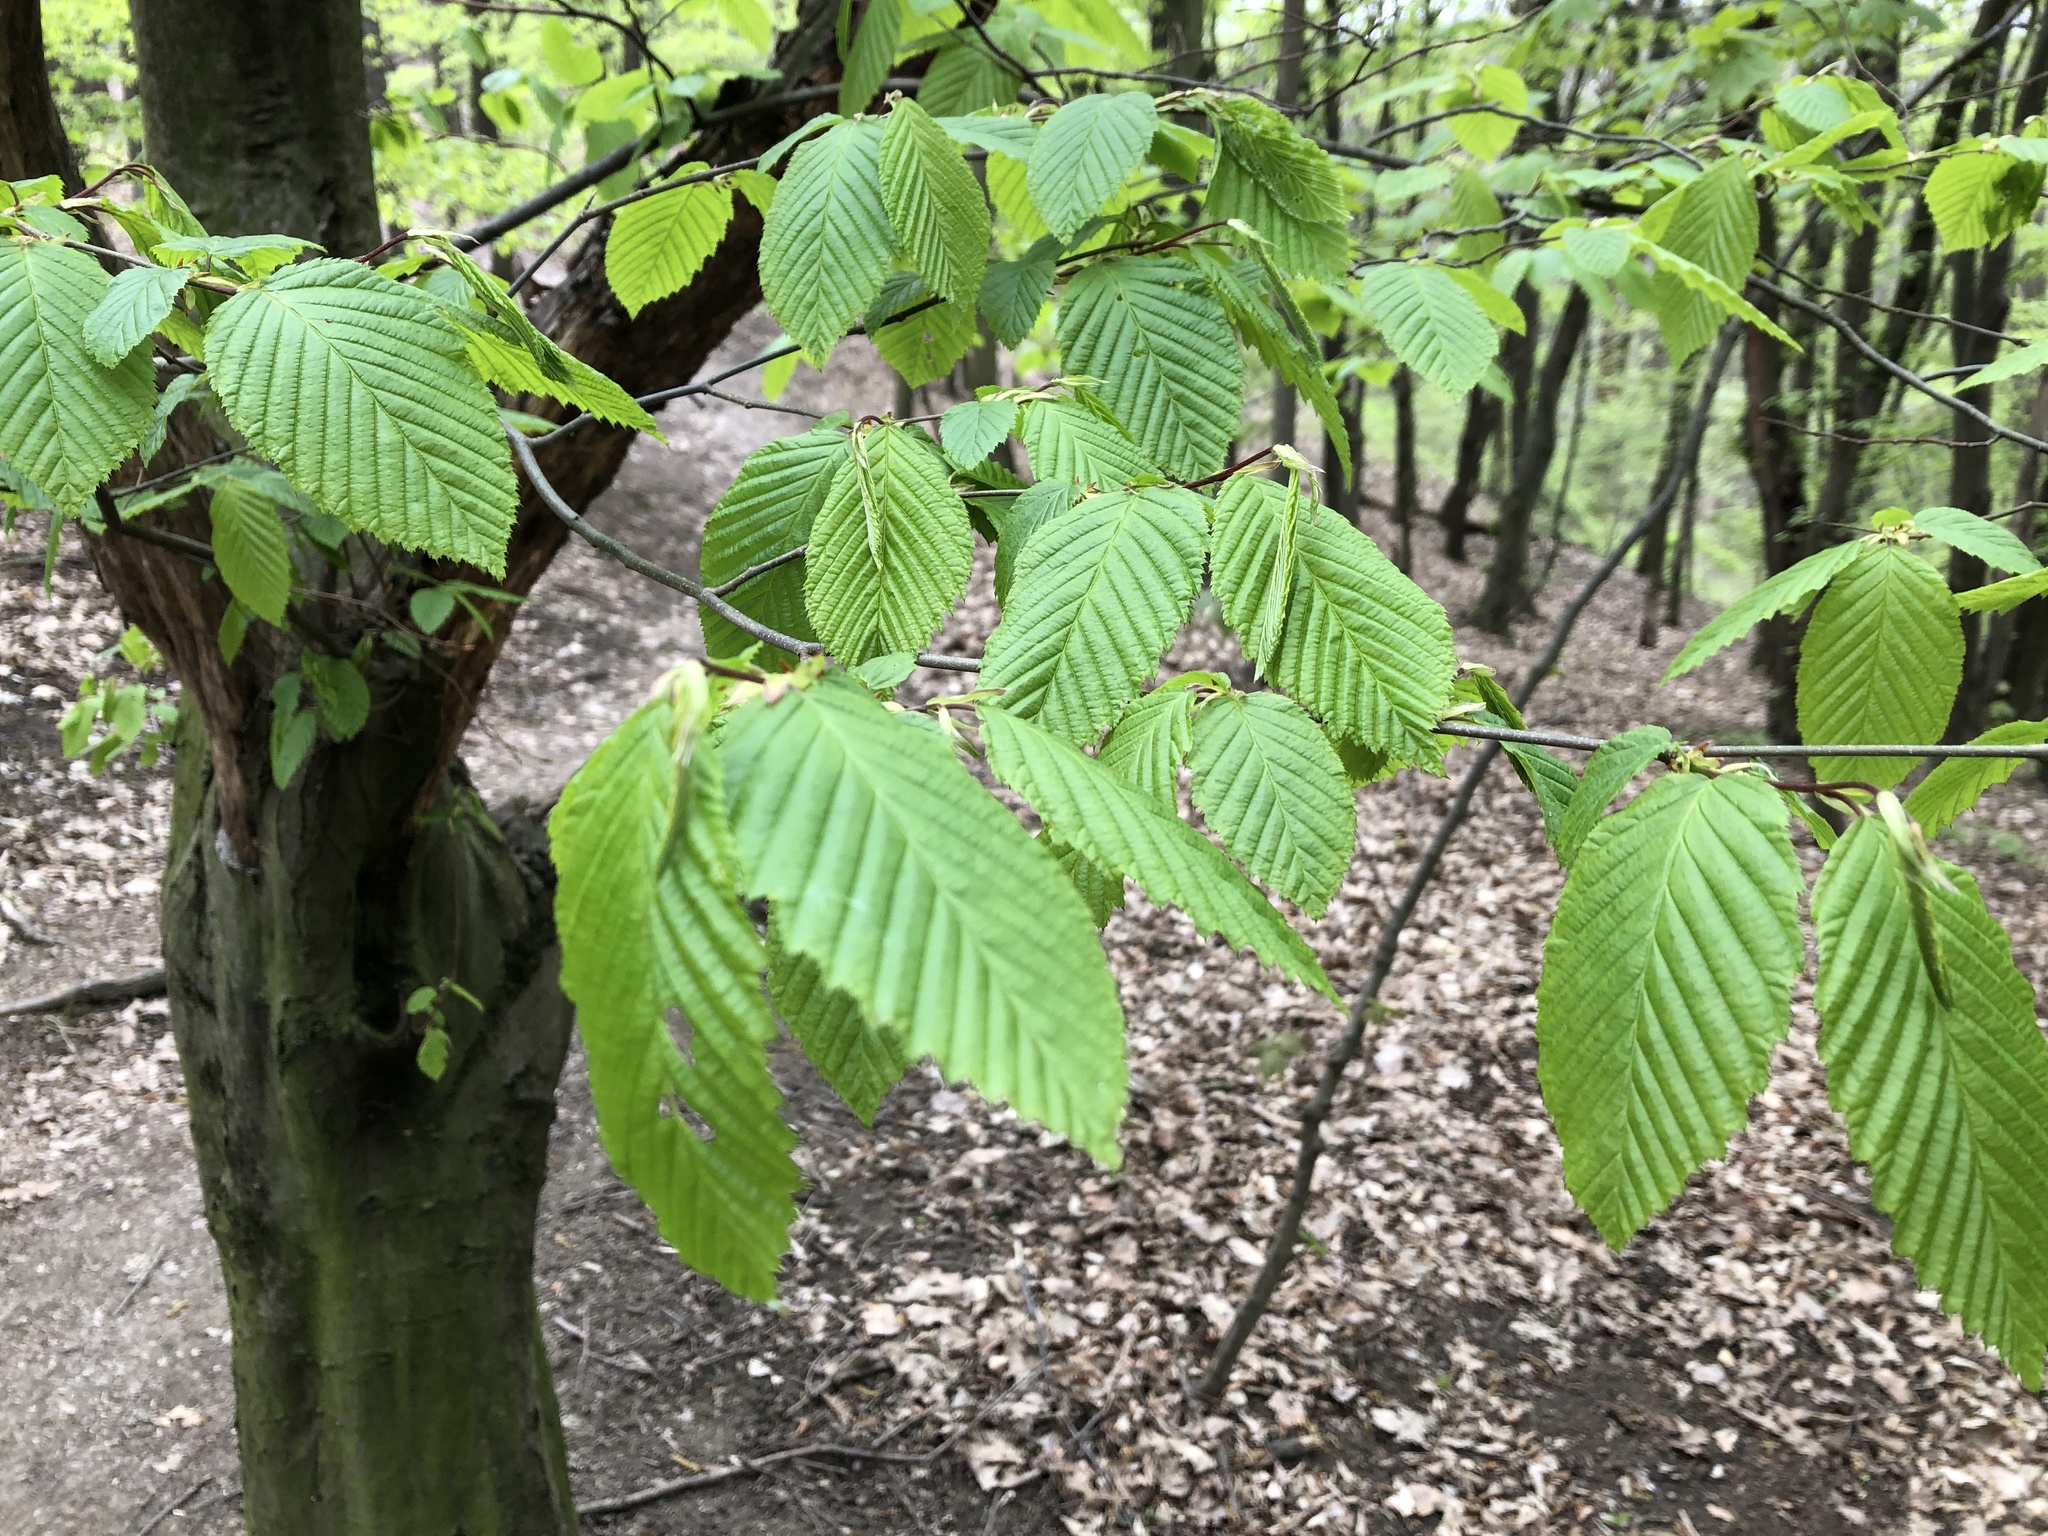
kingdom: Plantae
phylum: Tracheophyta
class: Magnoliopsida
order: Fagales
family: Betulaceae
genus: Carpinus
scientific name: Carpinus betulus
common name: Hornbeam
